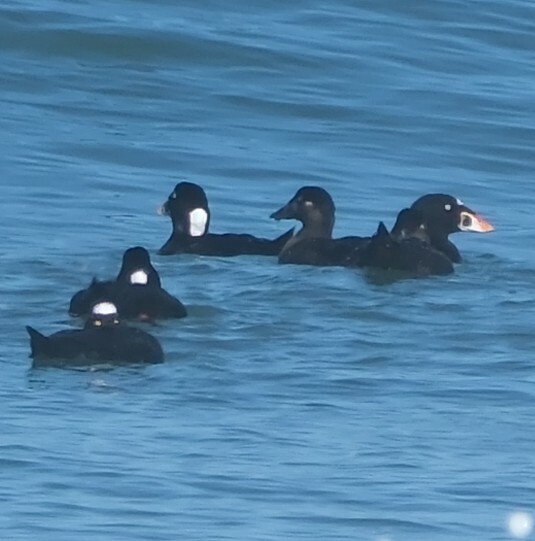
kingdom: Animalia
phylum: Chordata
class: Aves
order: Anseriformes
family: Anatidae
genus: Melanitta
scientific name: Melanitta perspicillata
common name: Surf scoter
